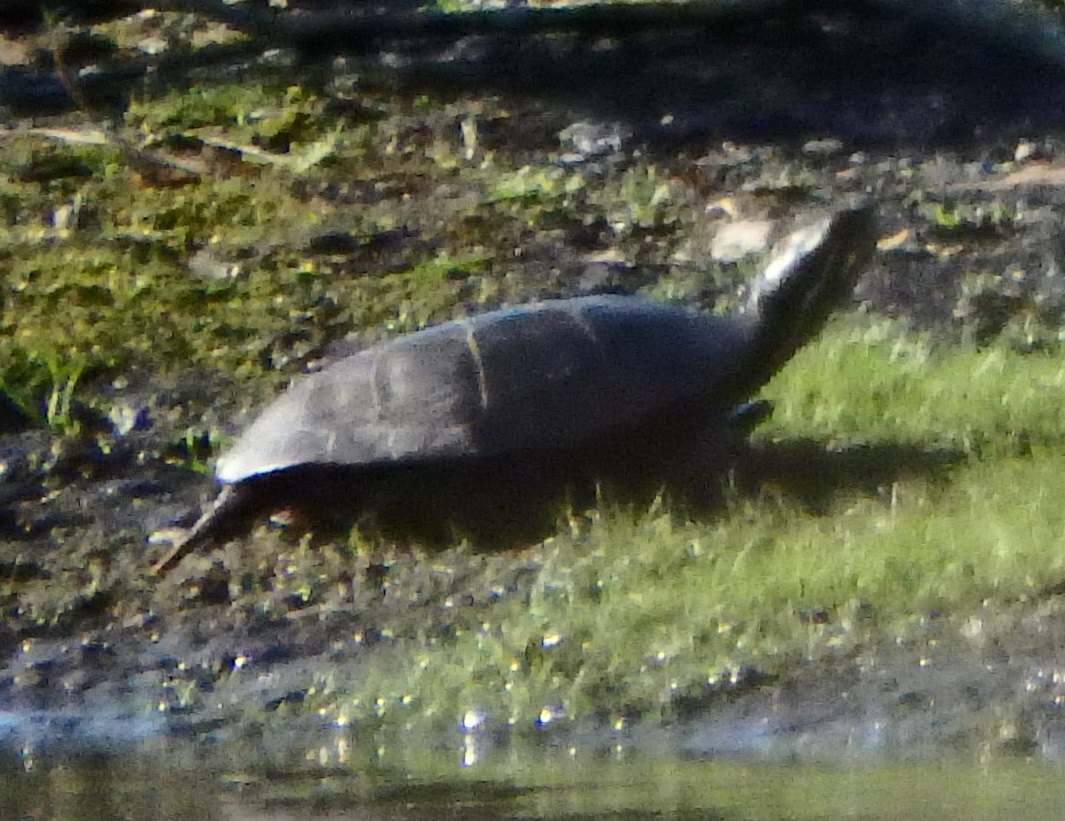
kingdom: Animalia
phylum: Chordata
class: Testudines
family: Emydidae
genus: Chrysemys
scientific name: Chrysemys picta
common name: Painted turtle
